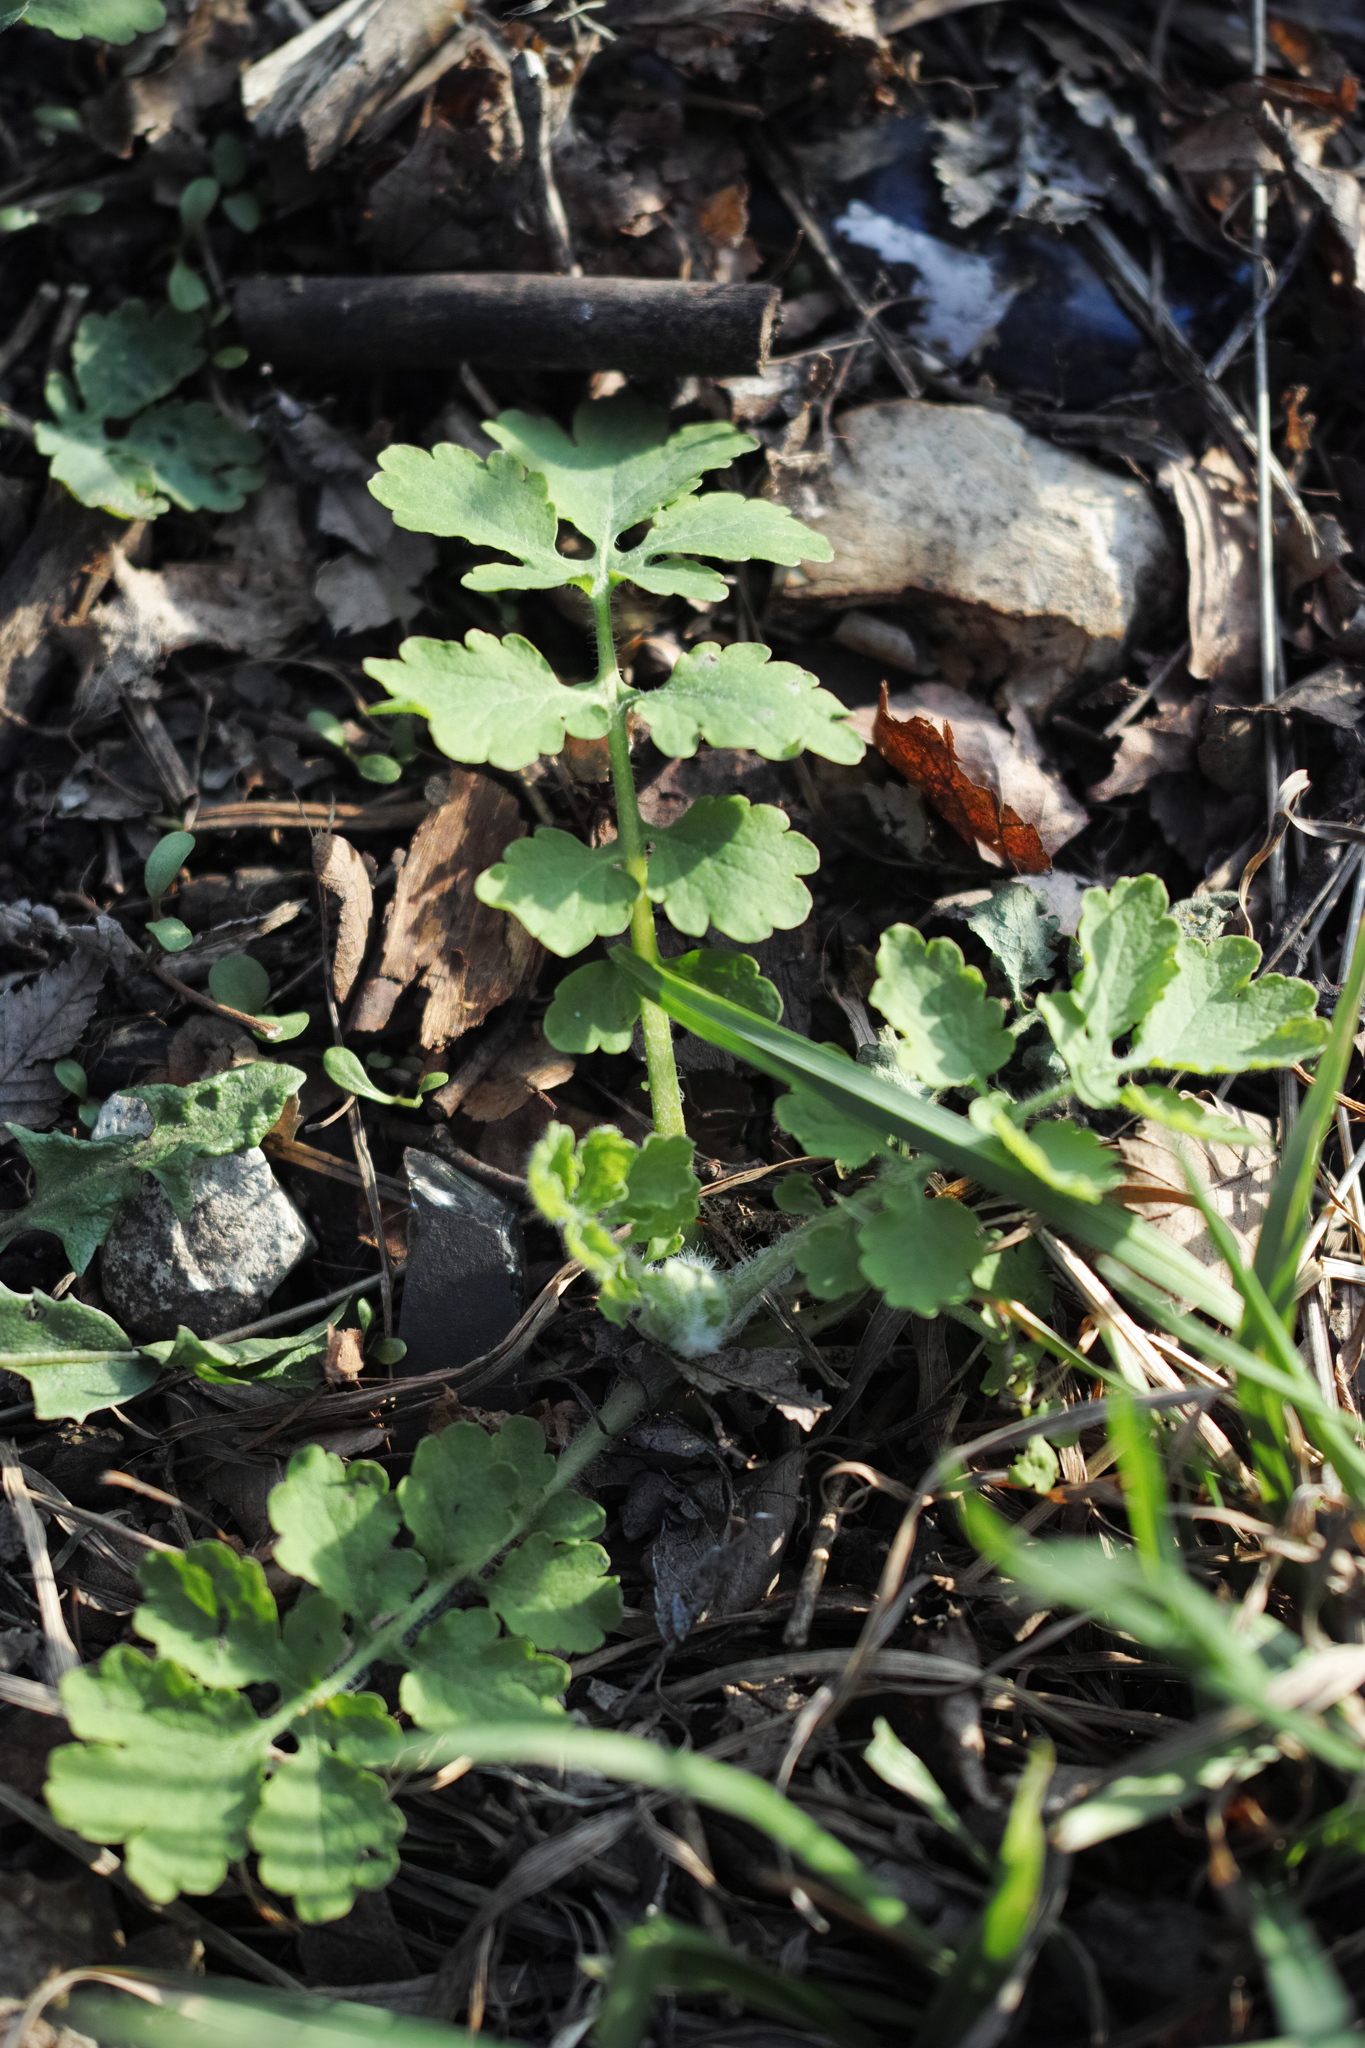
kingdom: Plantae
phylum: Tracheophyta
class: Magnoliopsida
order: Ranunculales
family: Papaveraceae
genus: Chelidonium
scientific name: Chelidonium majus
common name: Greater celandine
